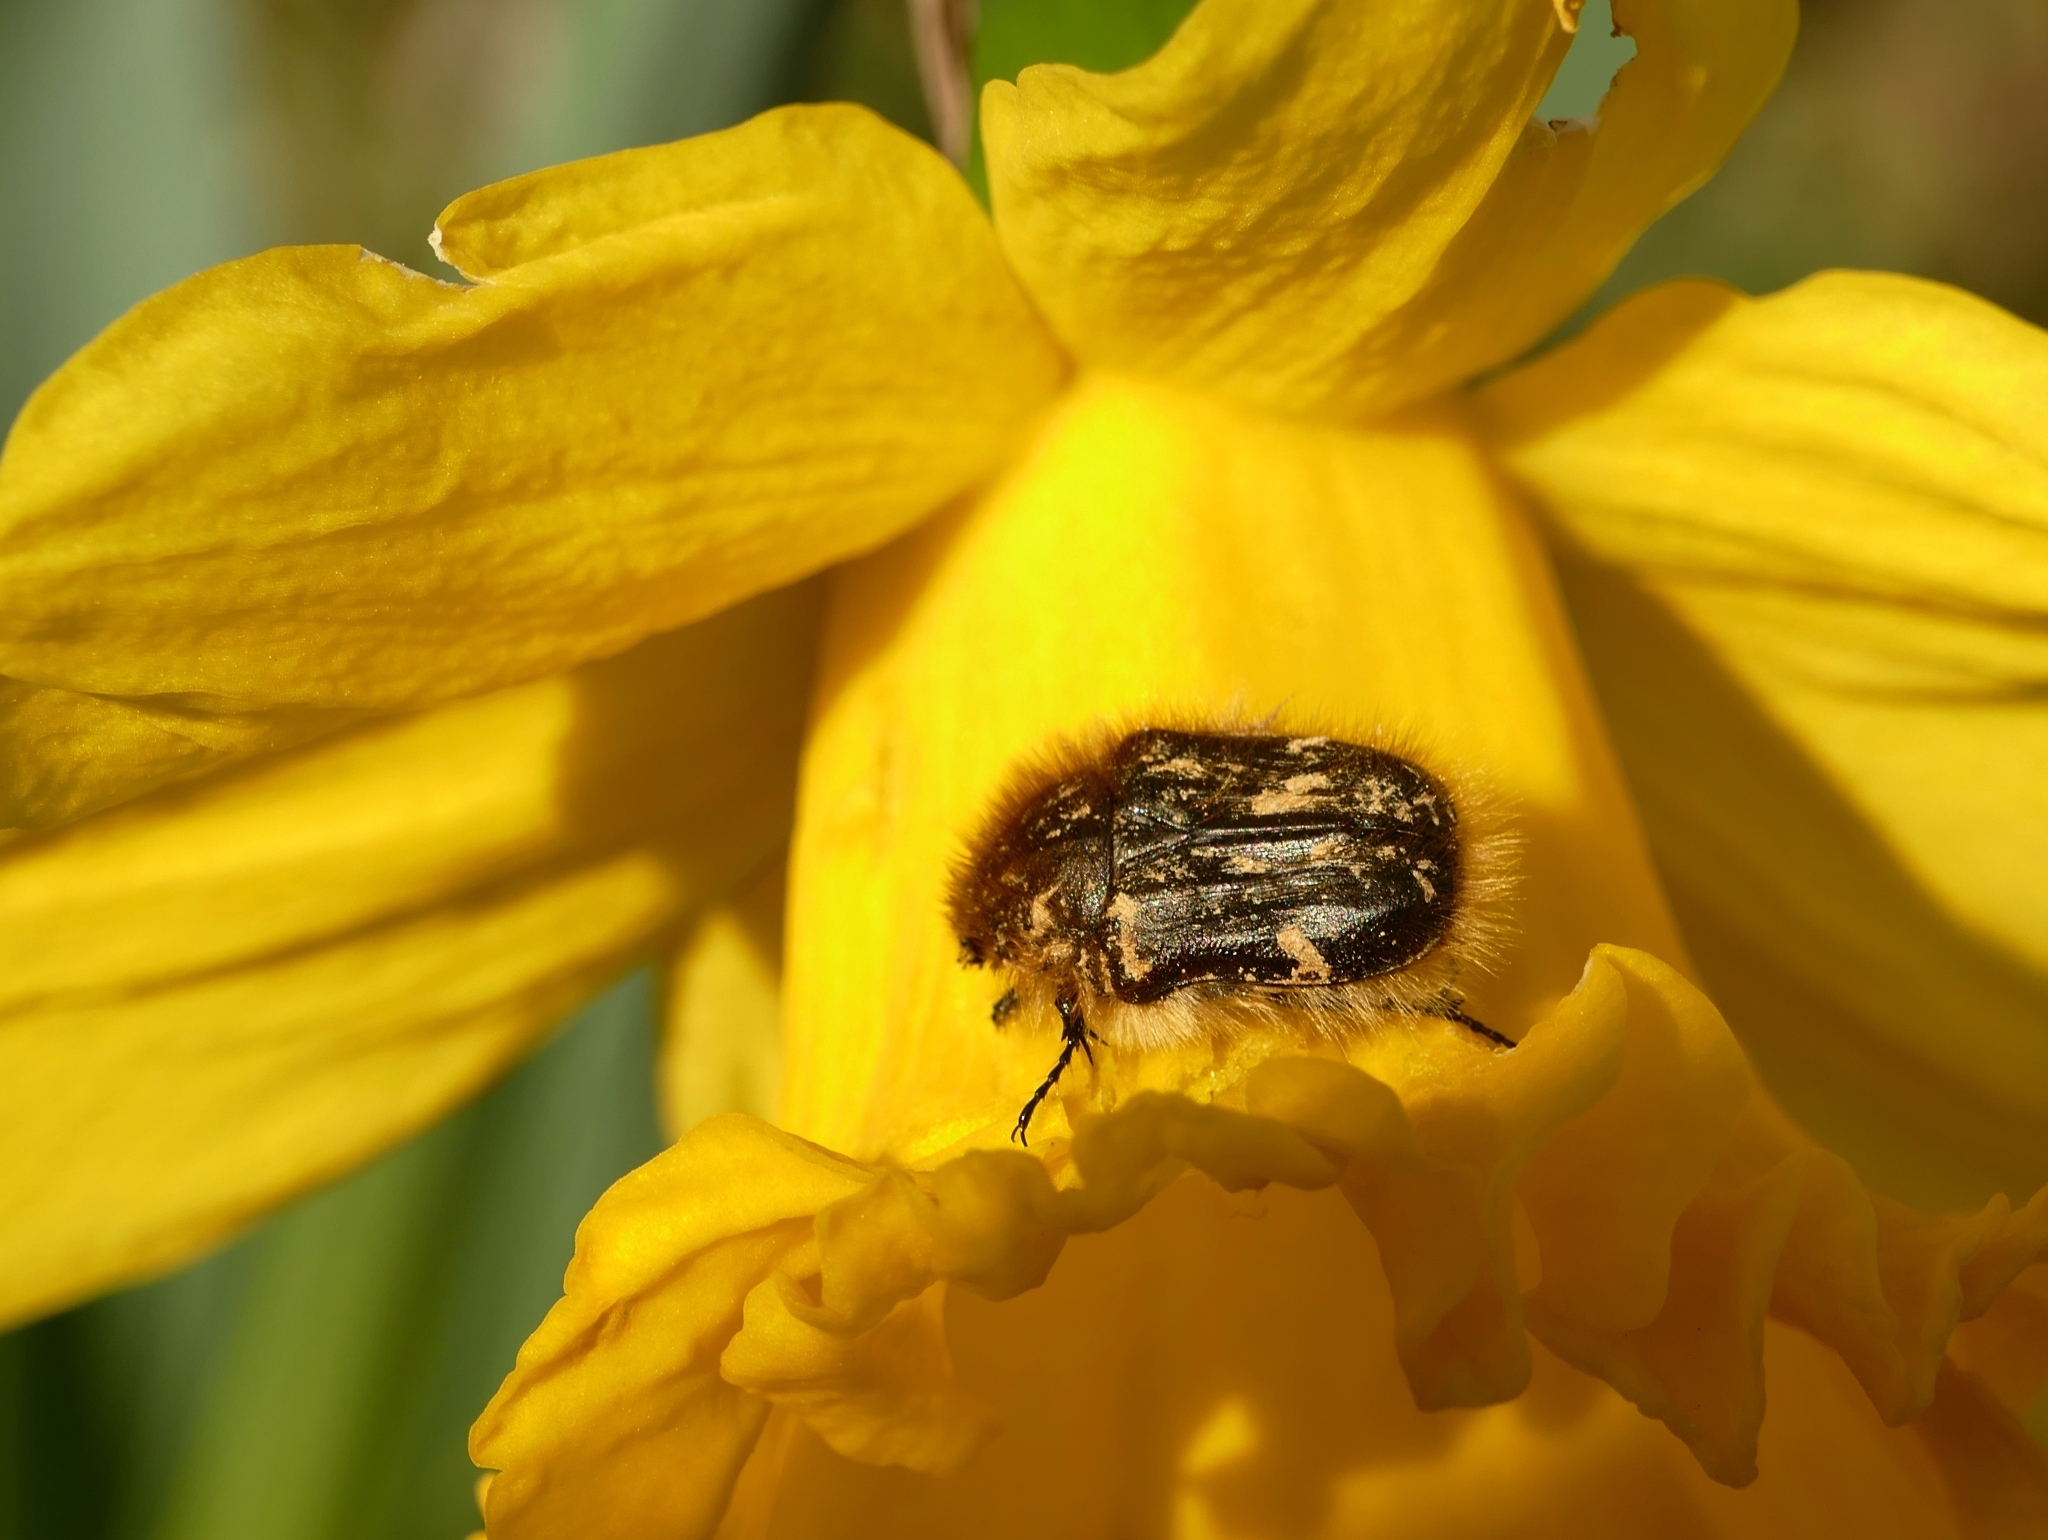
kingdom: Animalia
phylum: Arthropoda
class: Insecta
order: Coleoptera
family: Scarabaeidae
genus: Tropinota
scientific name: Tropinota hirta
